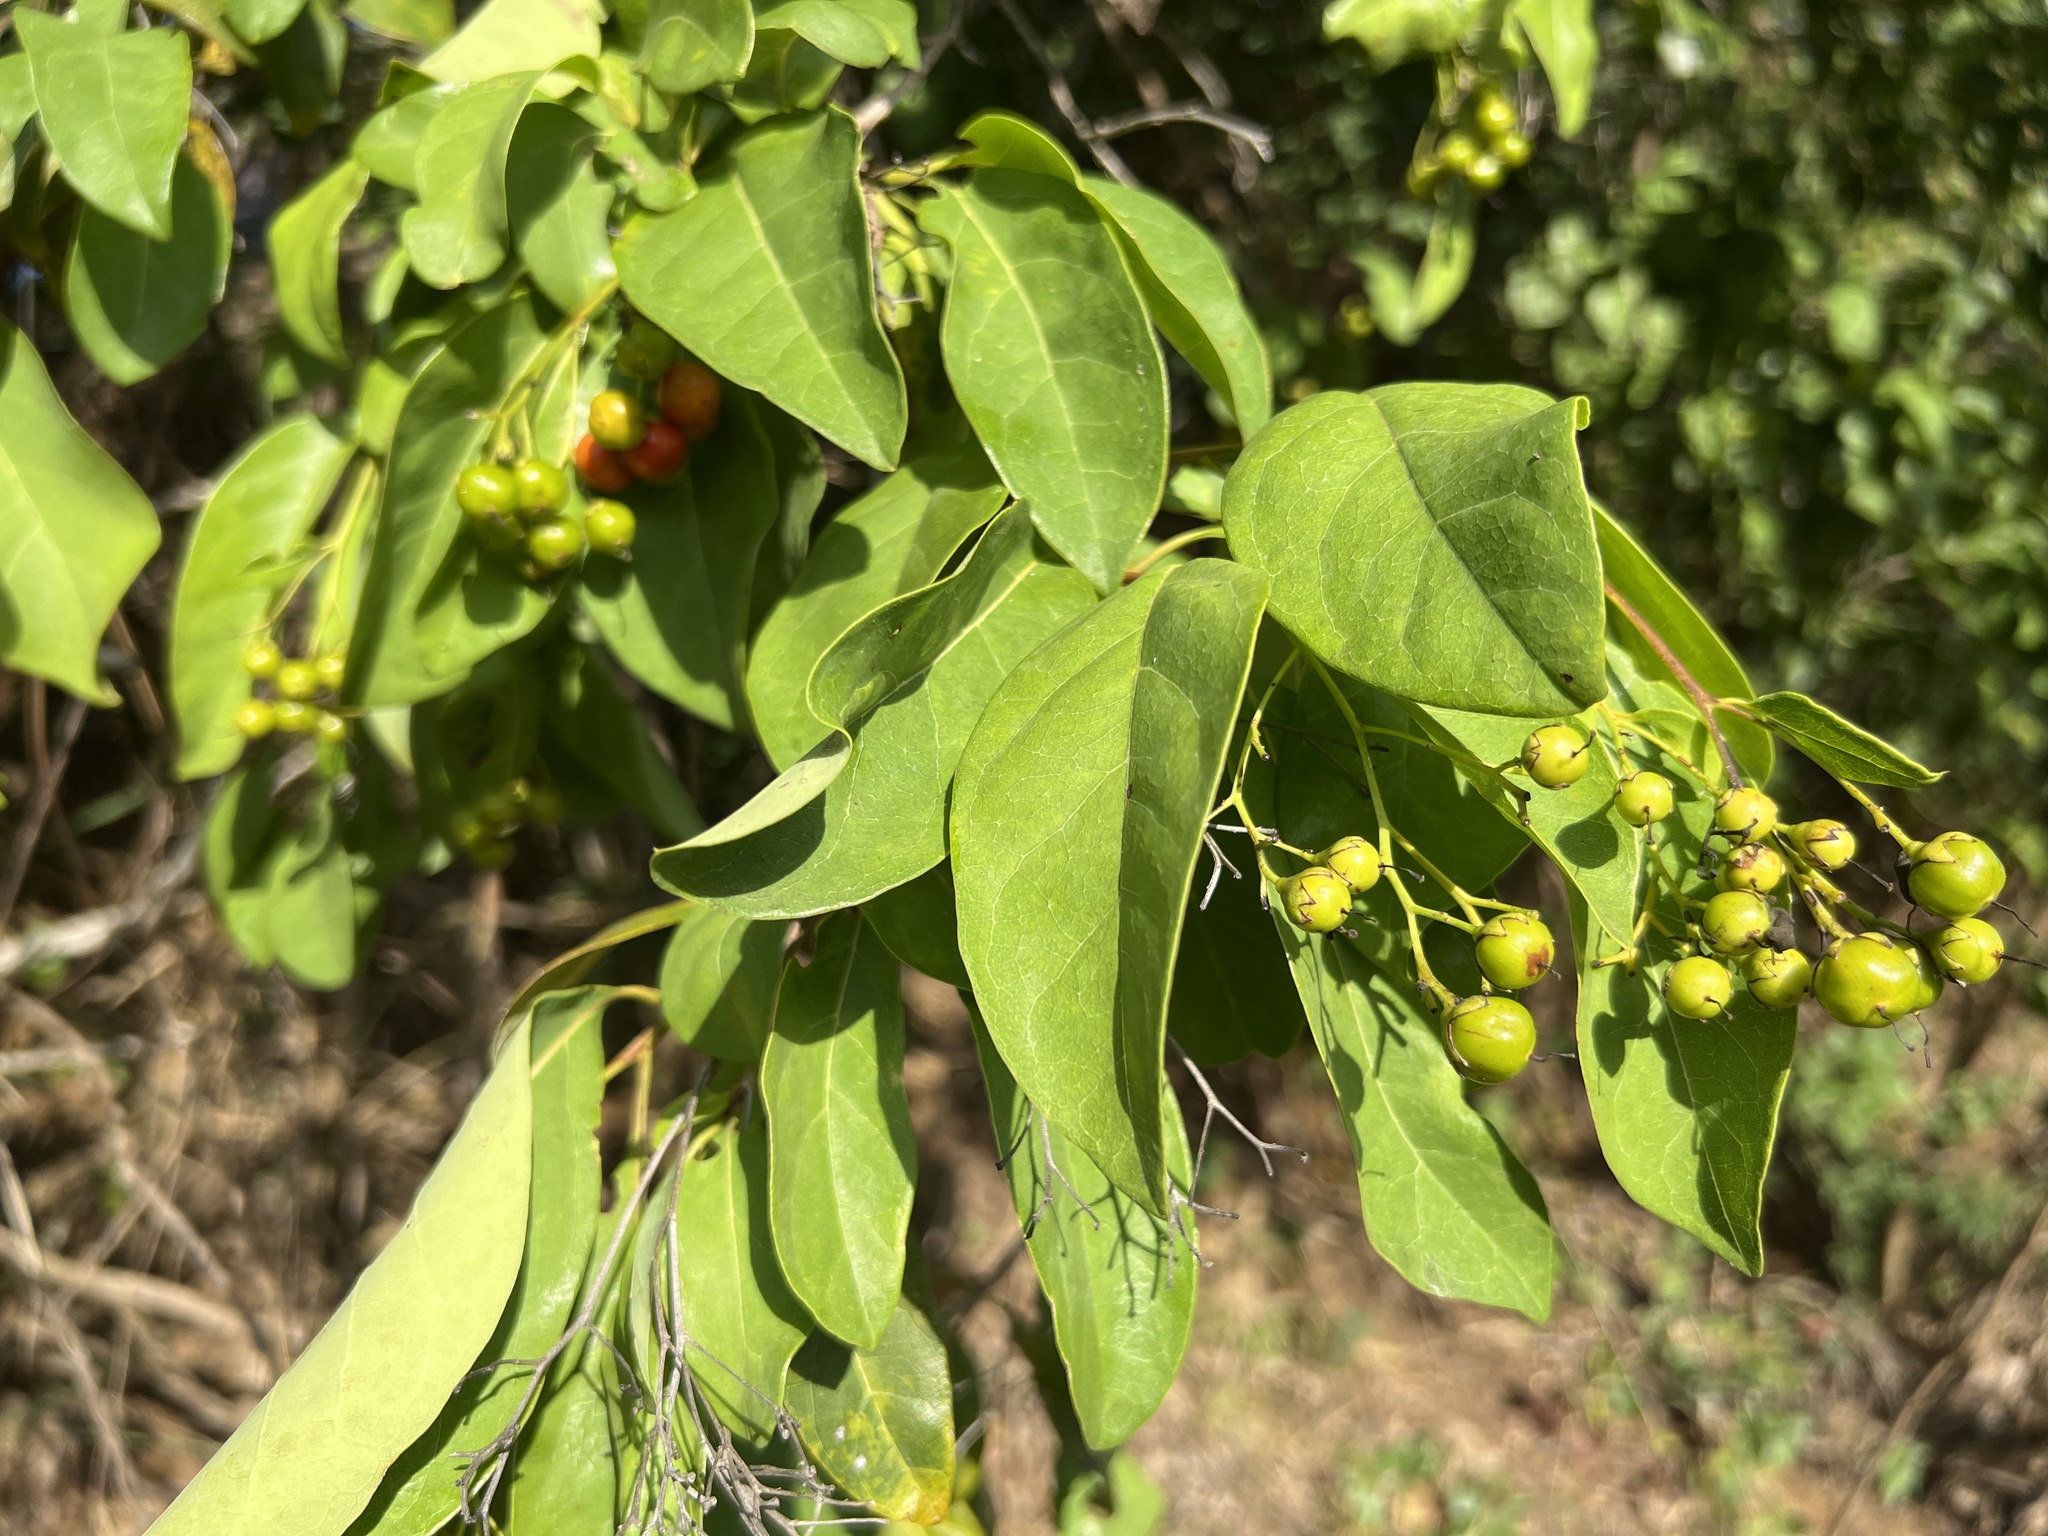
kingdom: Plantae
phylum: Tracheophyta
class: Magnoliopsida
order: Boraginales
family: Ehretiaceae
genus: Bourreria
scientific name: Bourreria succulenta
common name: Cherry
